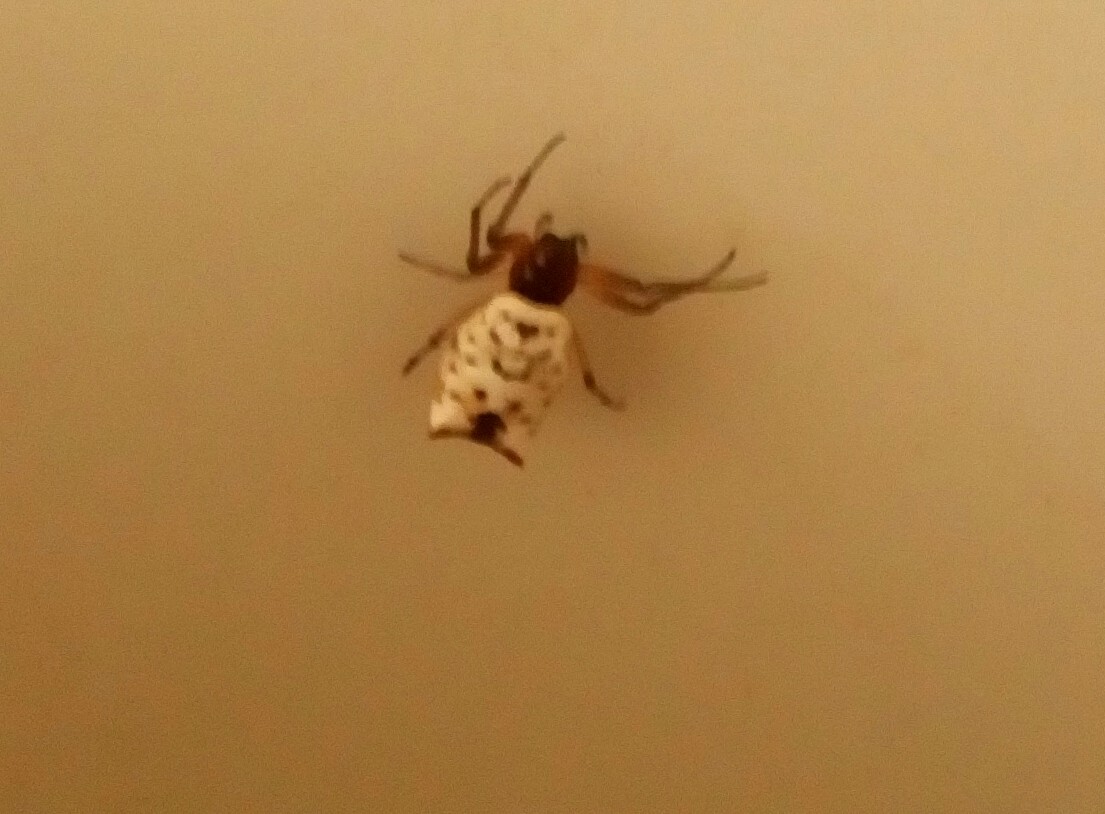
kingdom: Animalia
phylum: Arthropoda
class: Arachnida
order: Araneae
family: Araneidae
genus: Micrathena
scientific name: Micrathena mitrata
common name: Orb weavers
